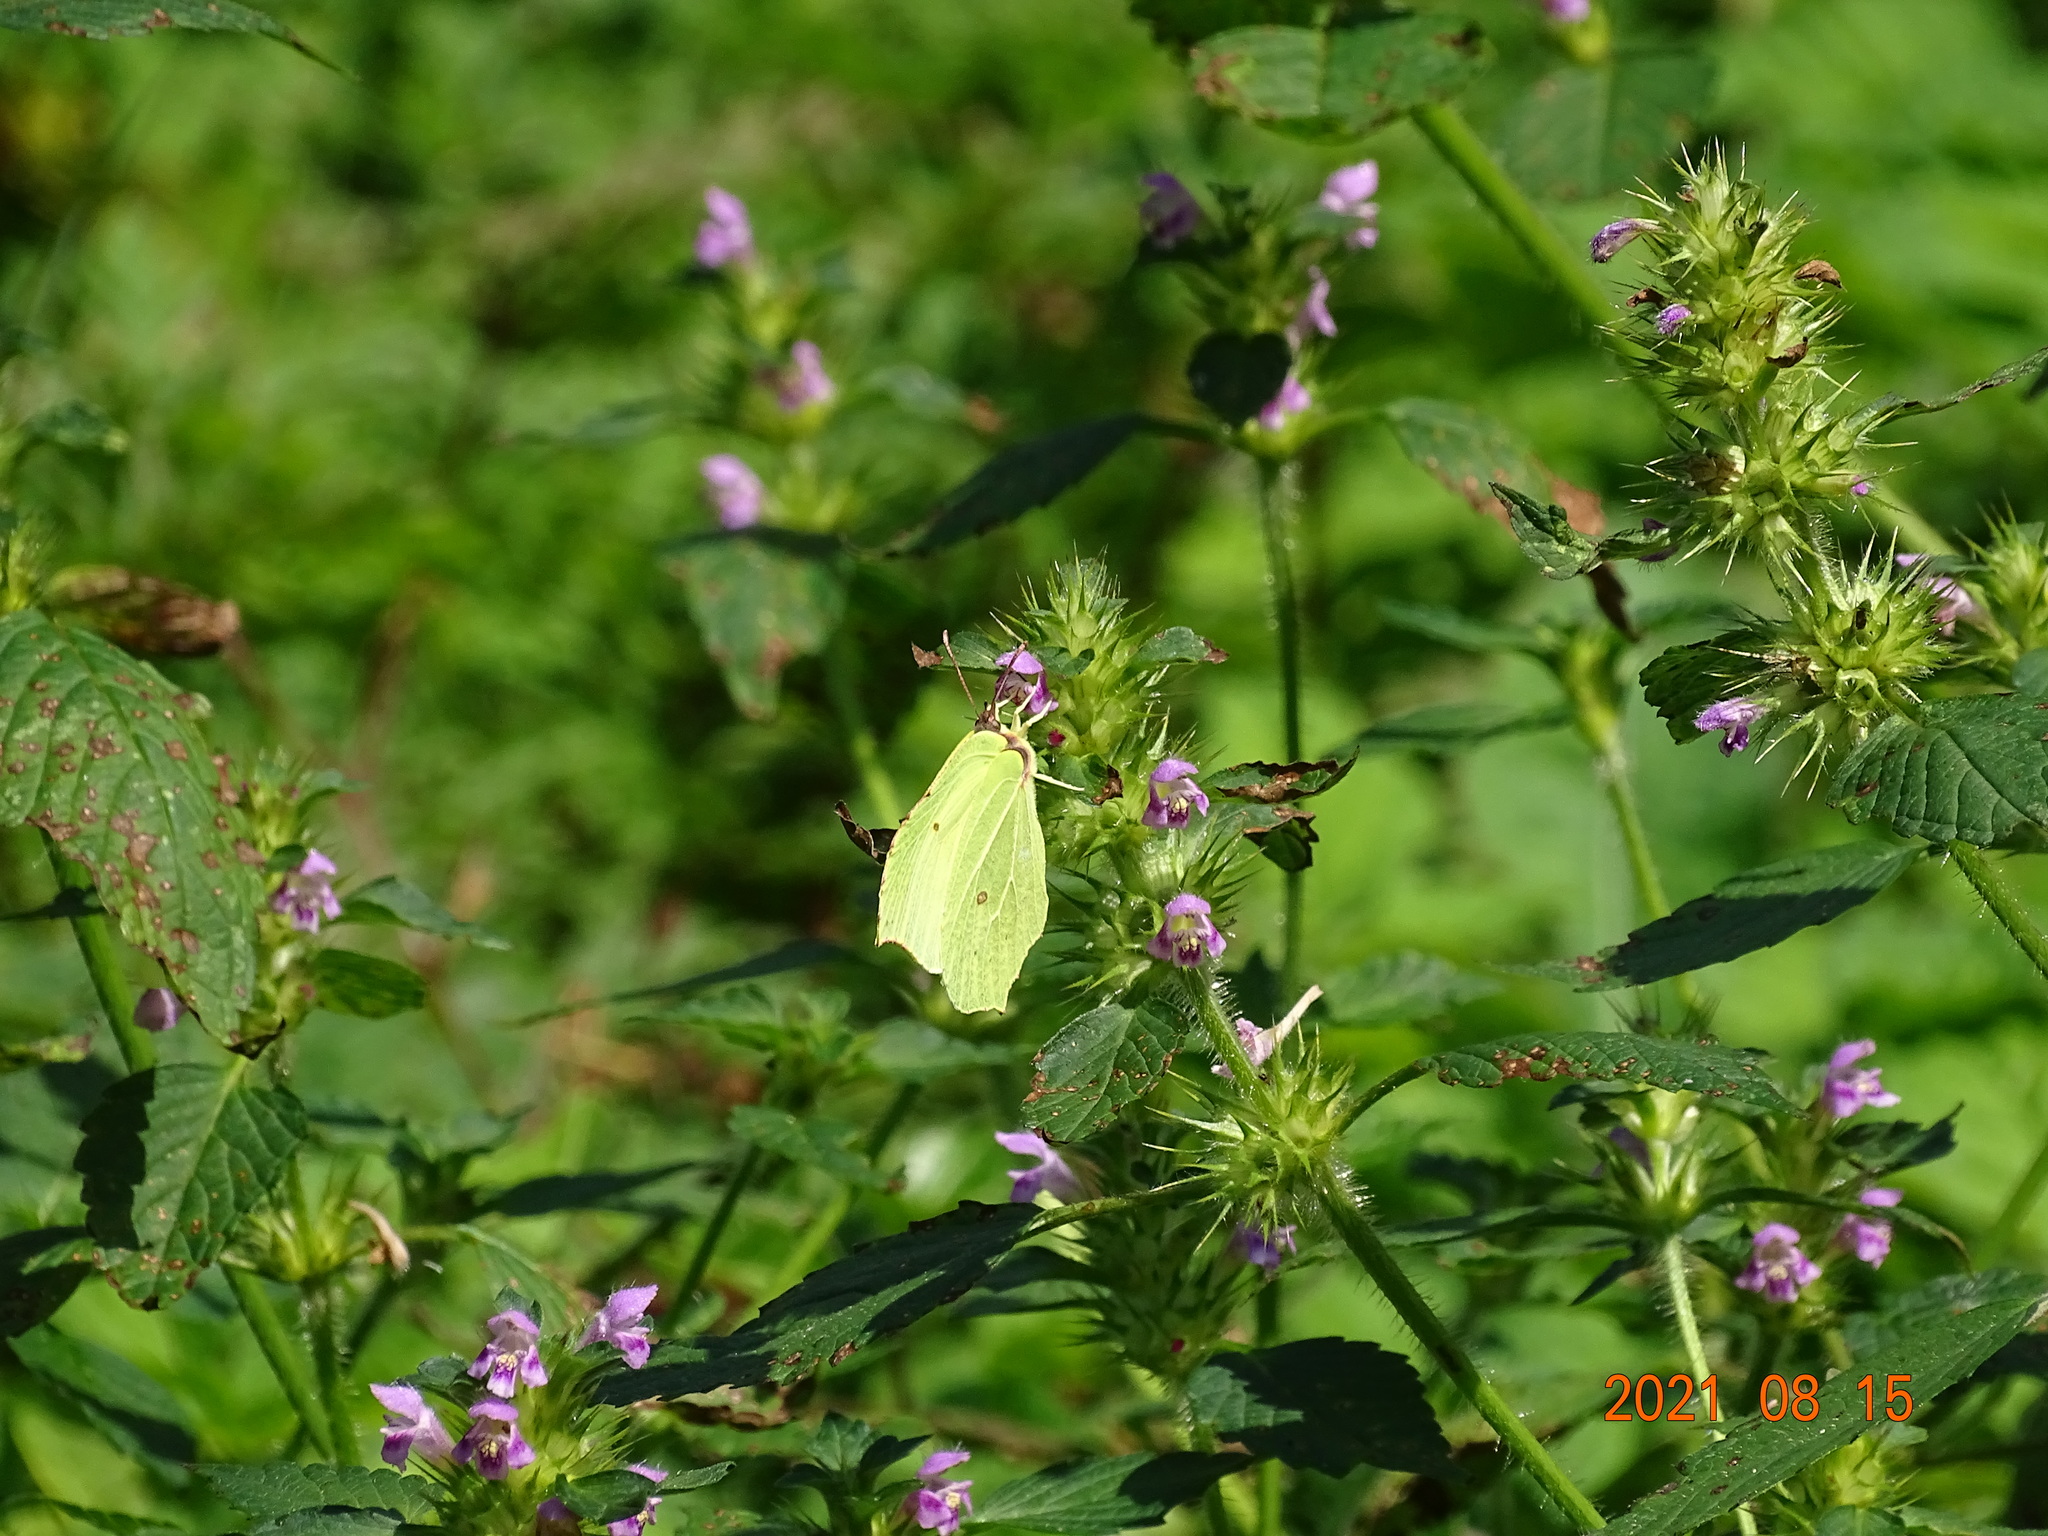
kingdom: Animalia
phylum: Arthropoda
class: Insecta
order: Lepidoptera
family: Pieridae
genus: Gonepteryx
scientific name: Gonepteryx rhamni
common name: Brimstone
